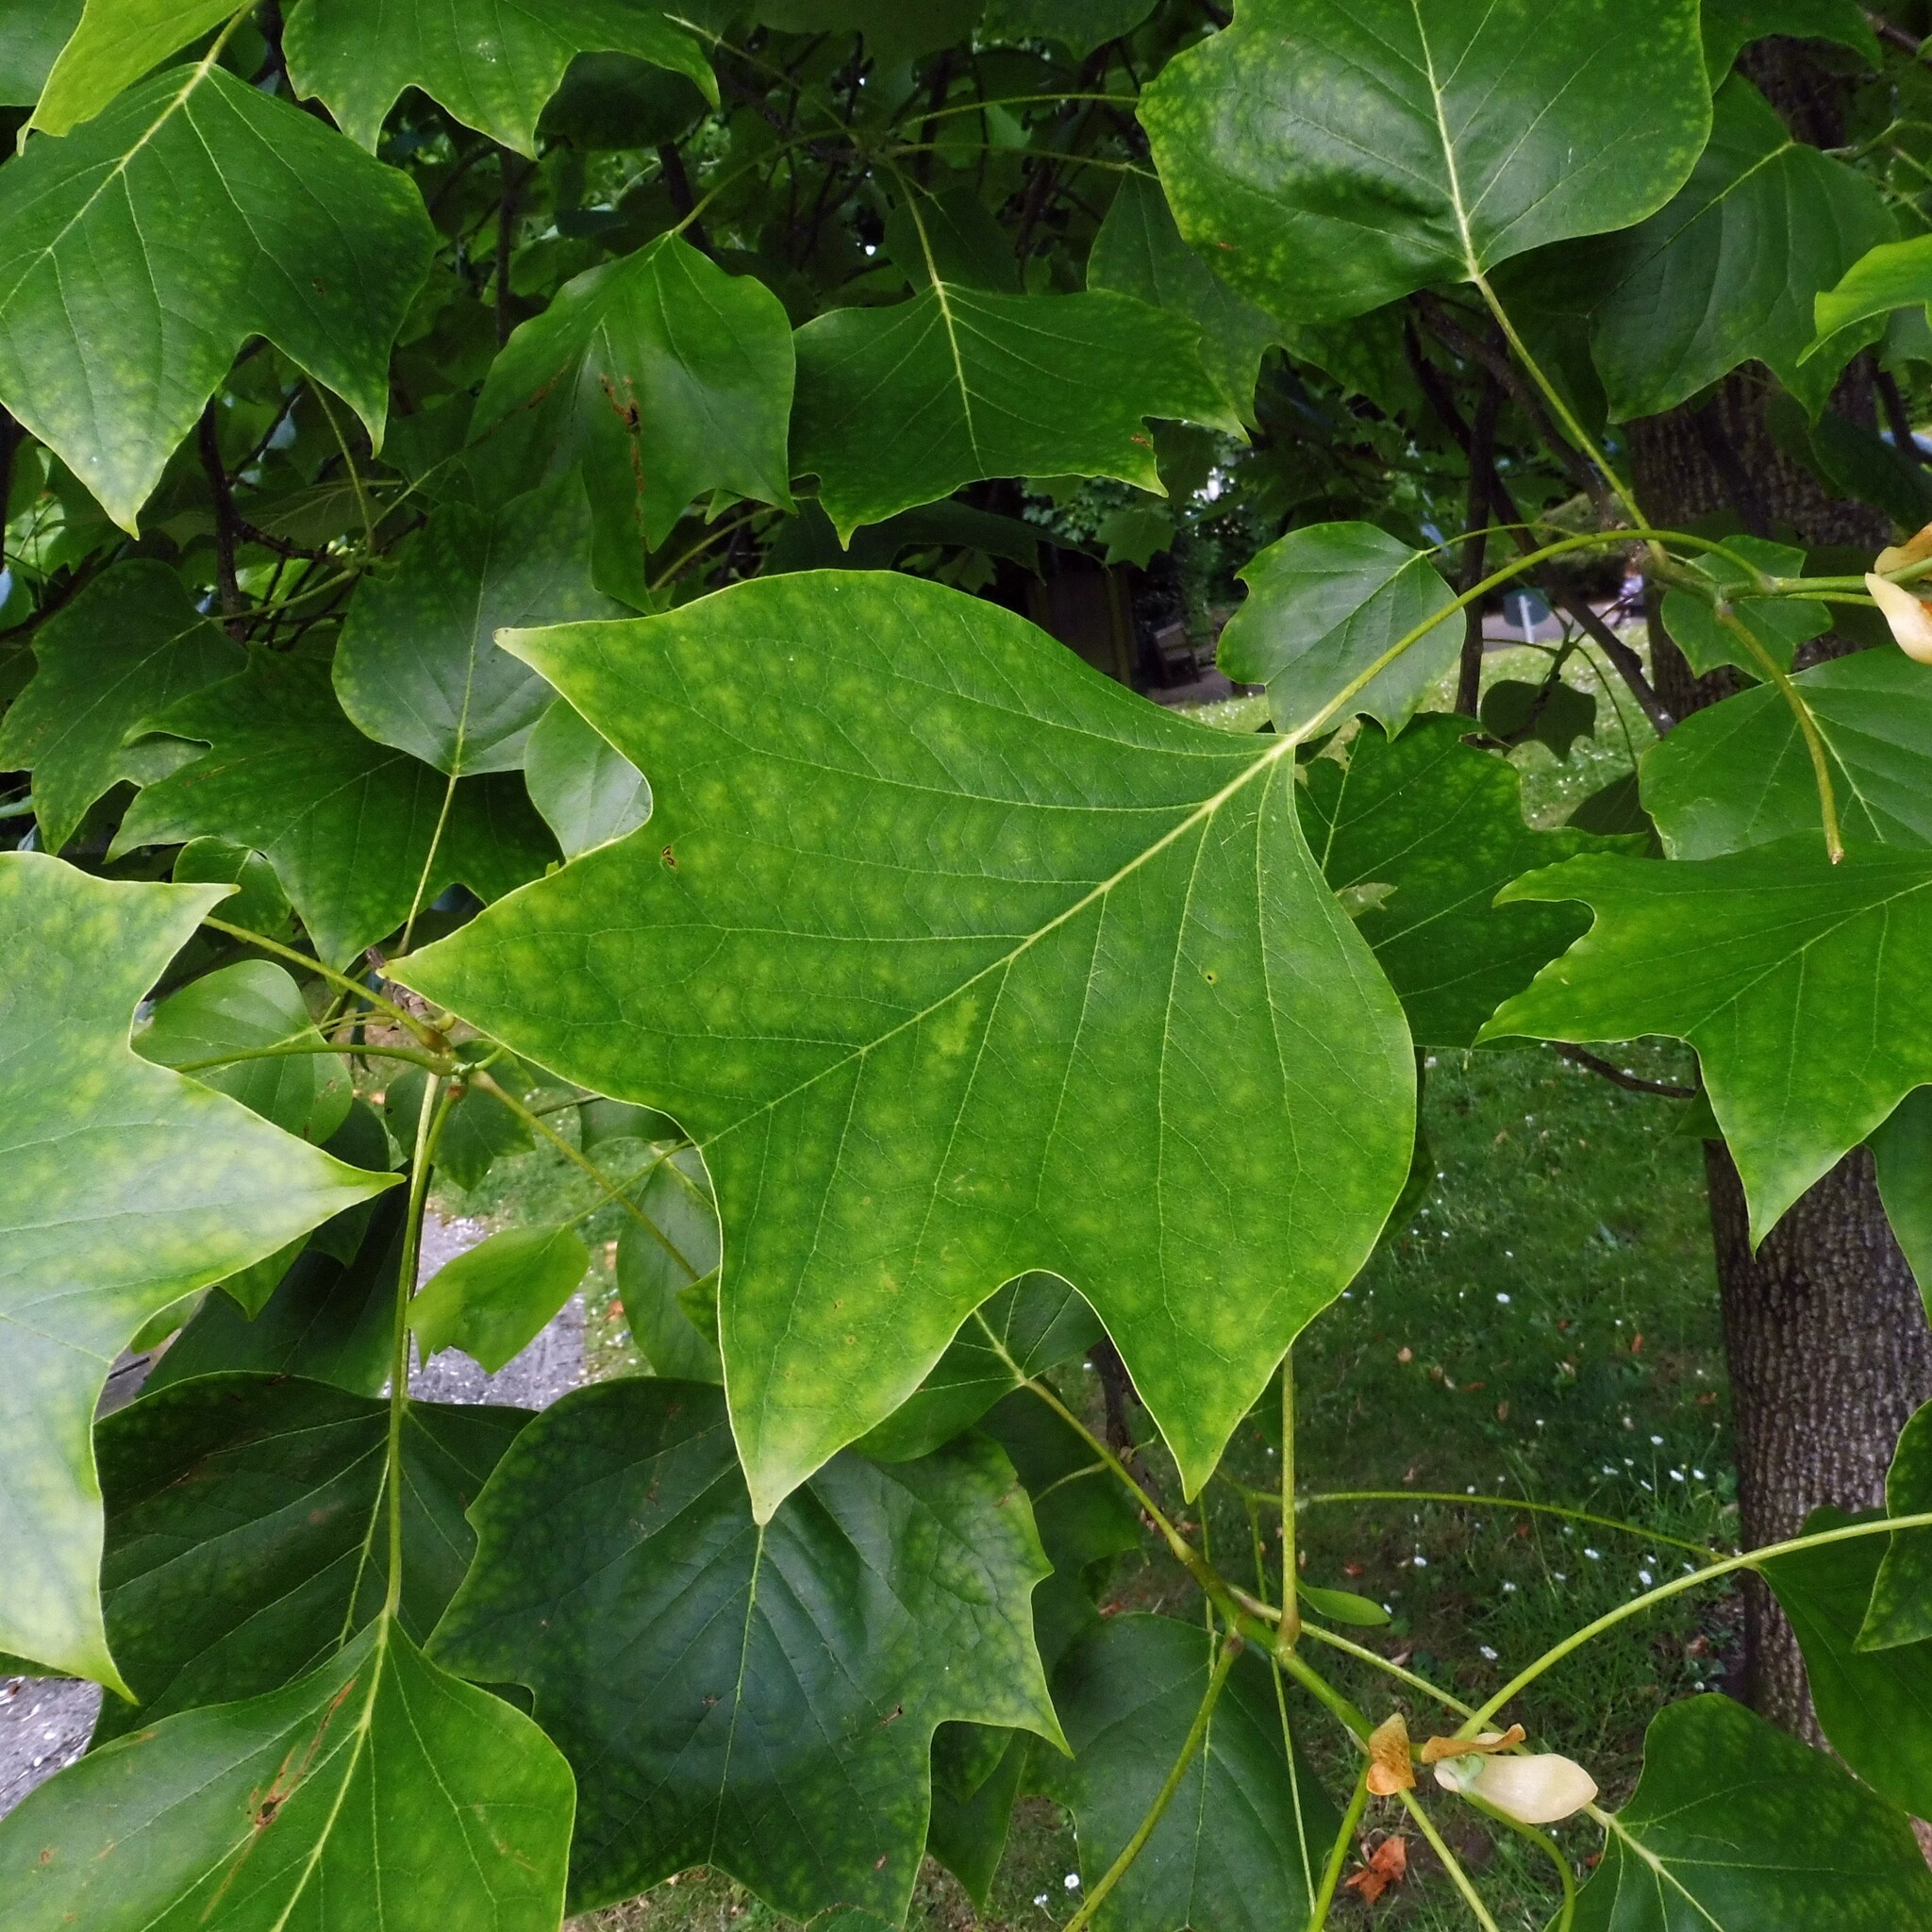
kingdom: Plantae
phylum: Tracheophyta
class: Magnoliopsida
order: Magnoliales
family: Magnoliaceae
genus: Liriodendron
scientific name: Liriodendron tulipifera
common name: Tulip tree
